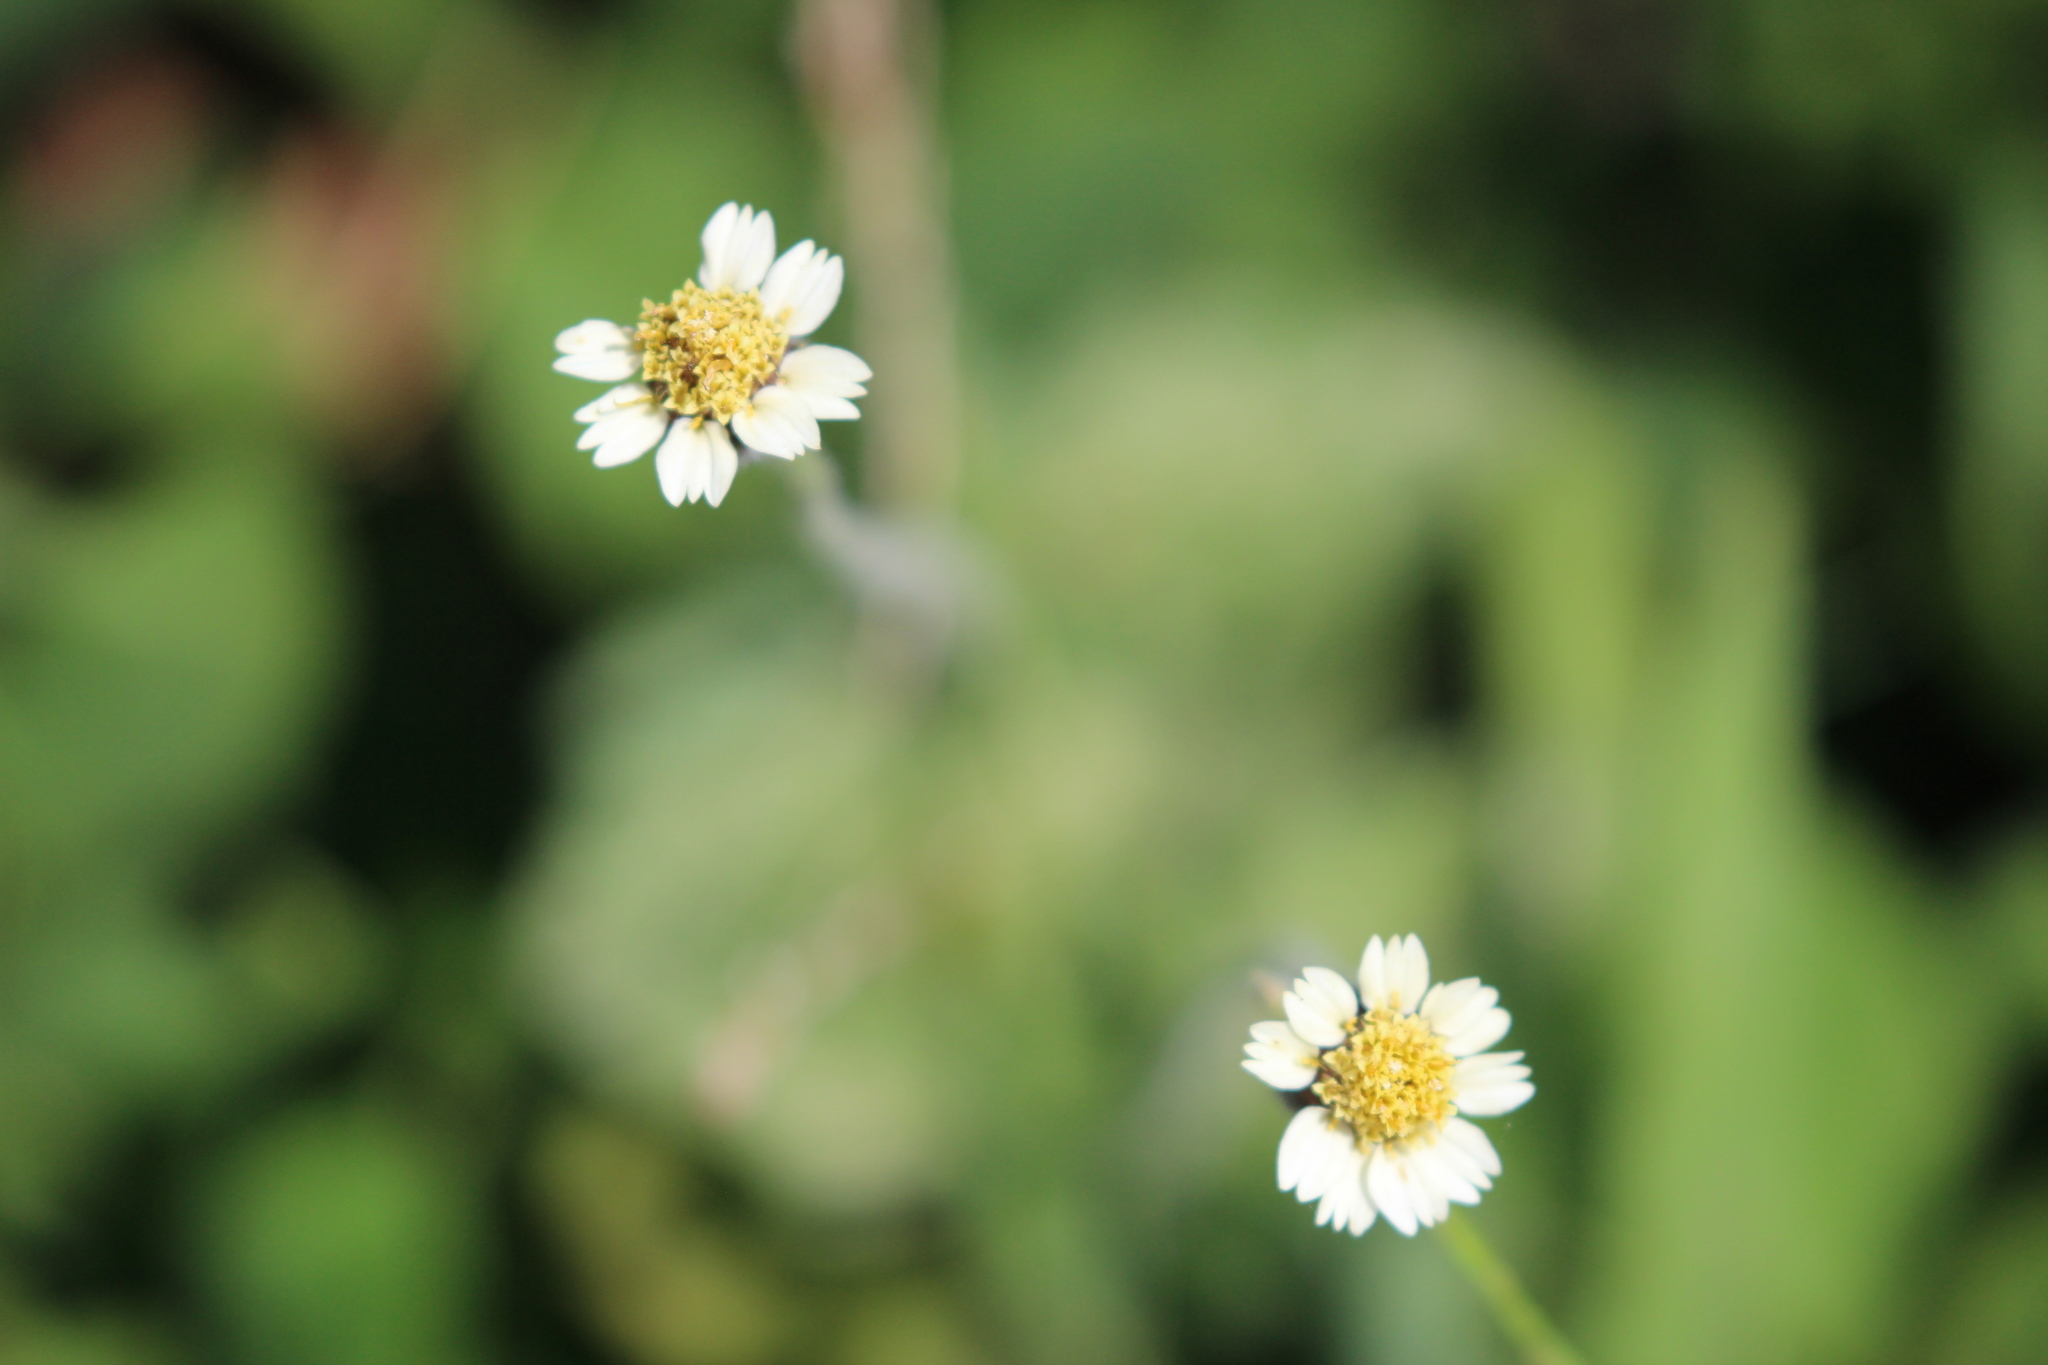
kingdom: Plantae
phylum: Tracheophyta
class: Magnoliopsida
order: Asterales
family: Asteraceae
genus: Tridax
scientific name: Tridax procumbens
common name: Coatbuttons
